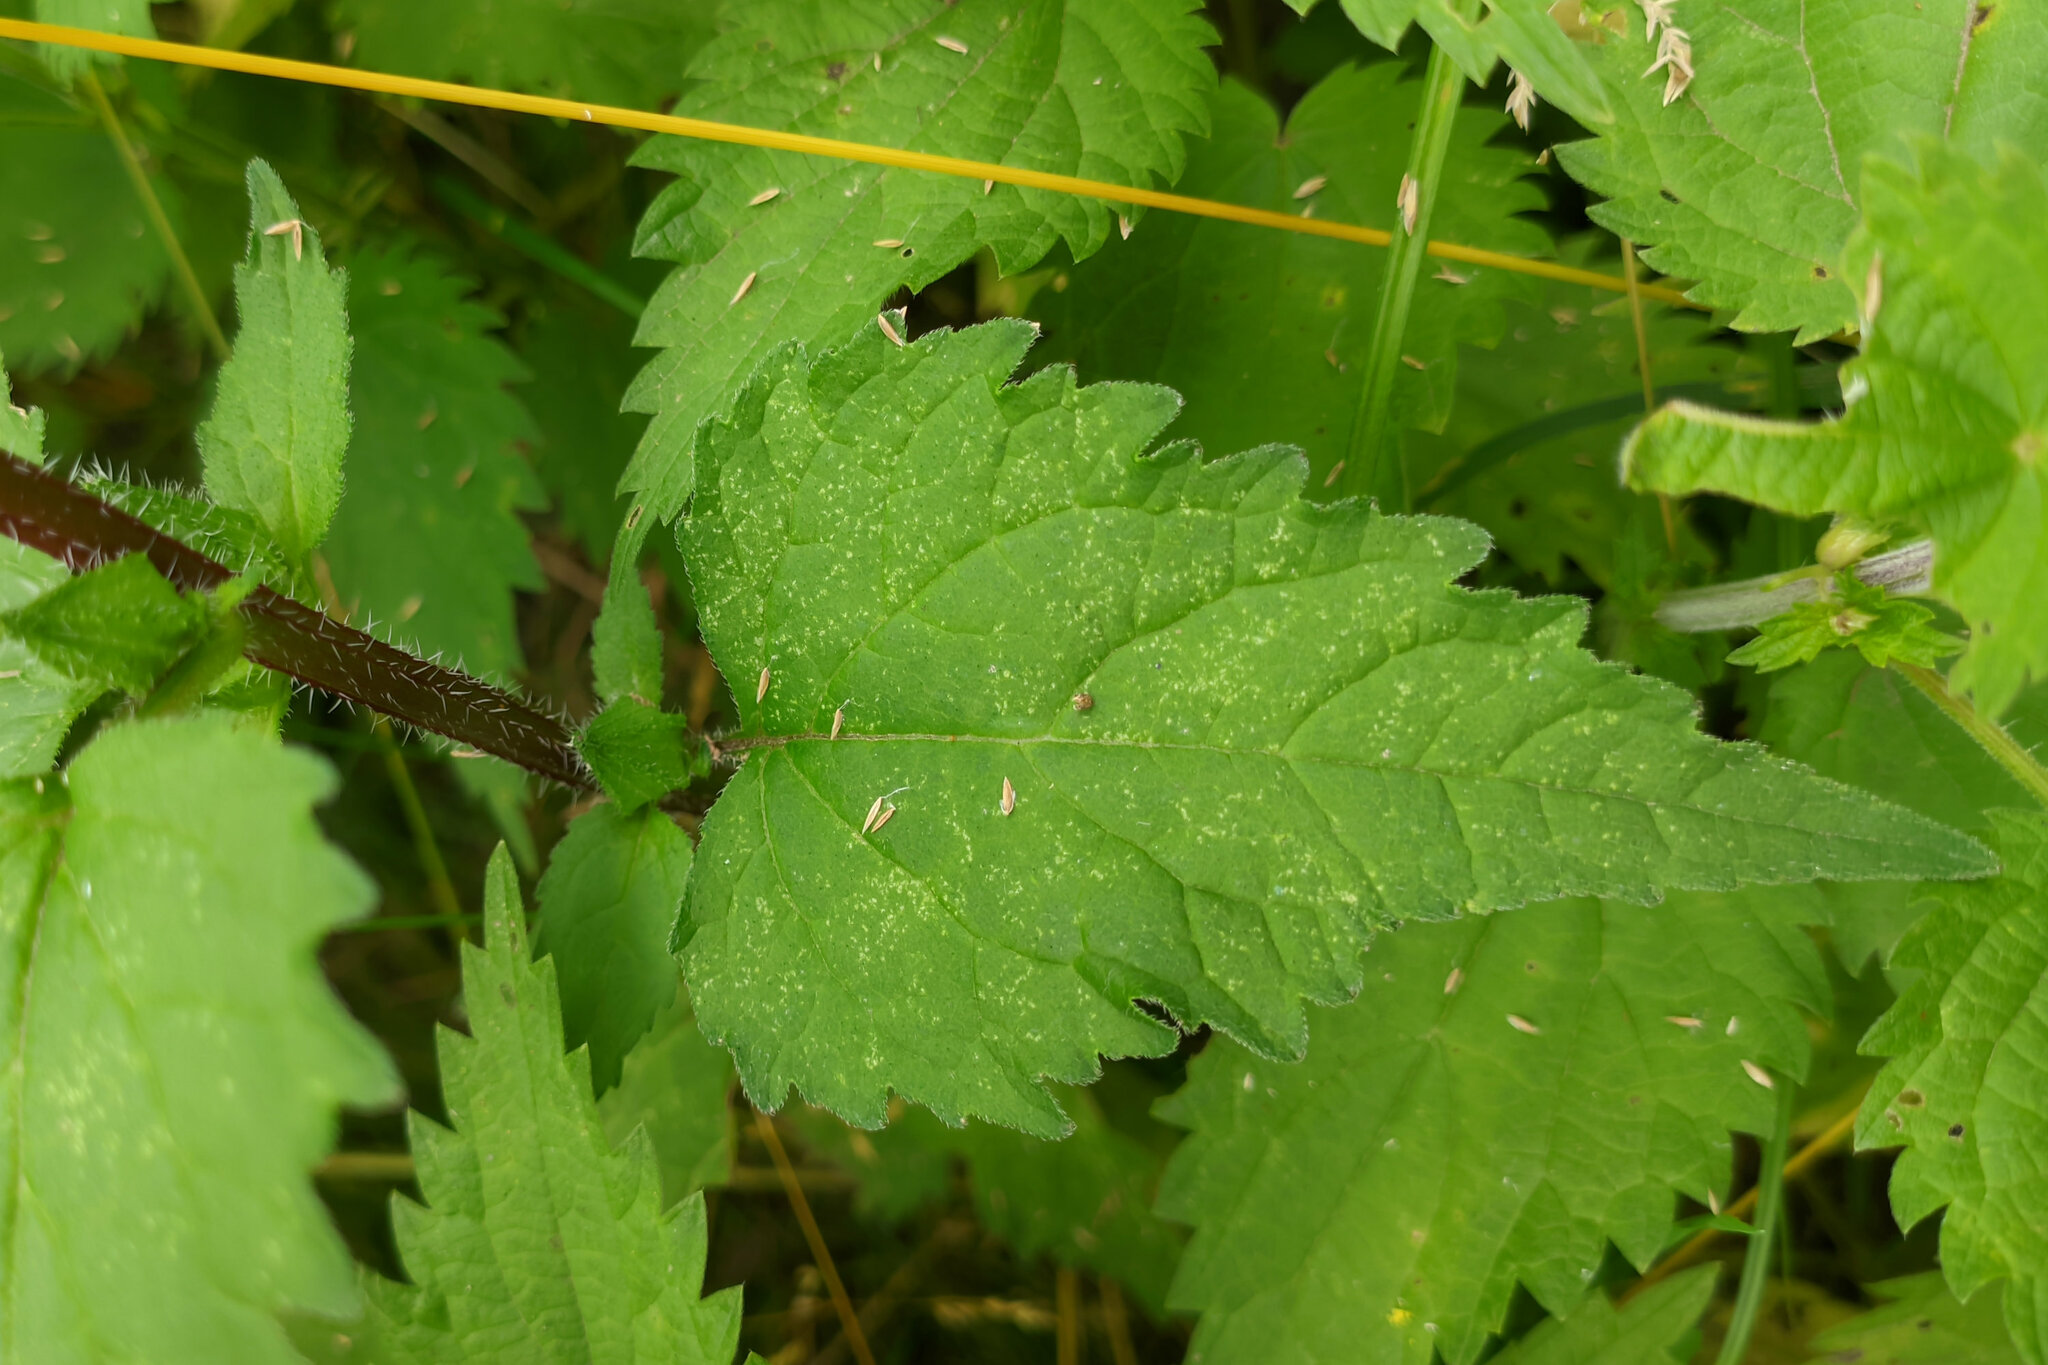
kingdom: Plantae
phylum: Tracheophyta
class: Magnoliopsida
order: Asterales
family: Campanulaceae
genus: Campanula
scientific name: Campanula trachelium
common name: Nettle-leaved bellflower
